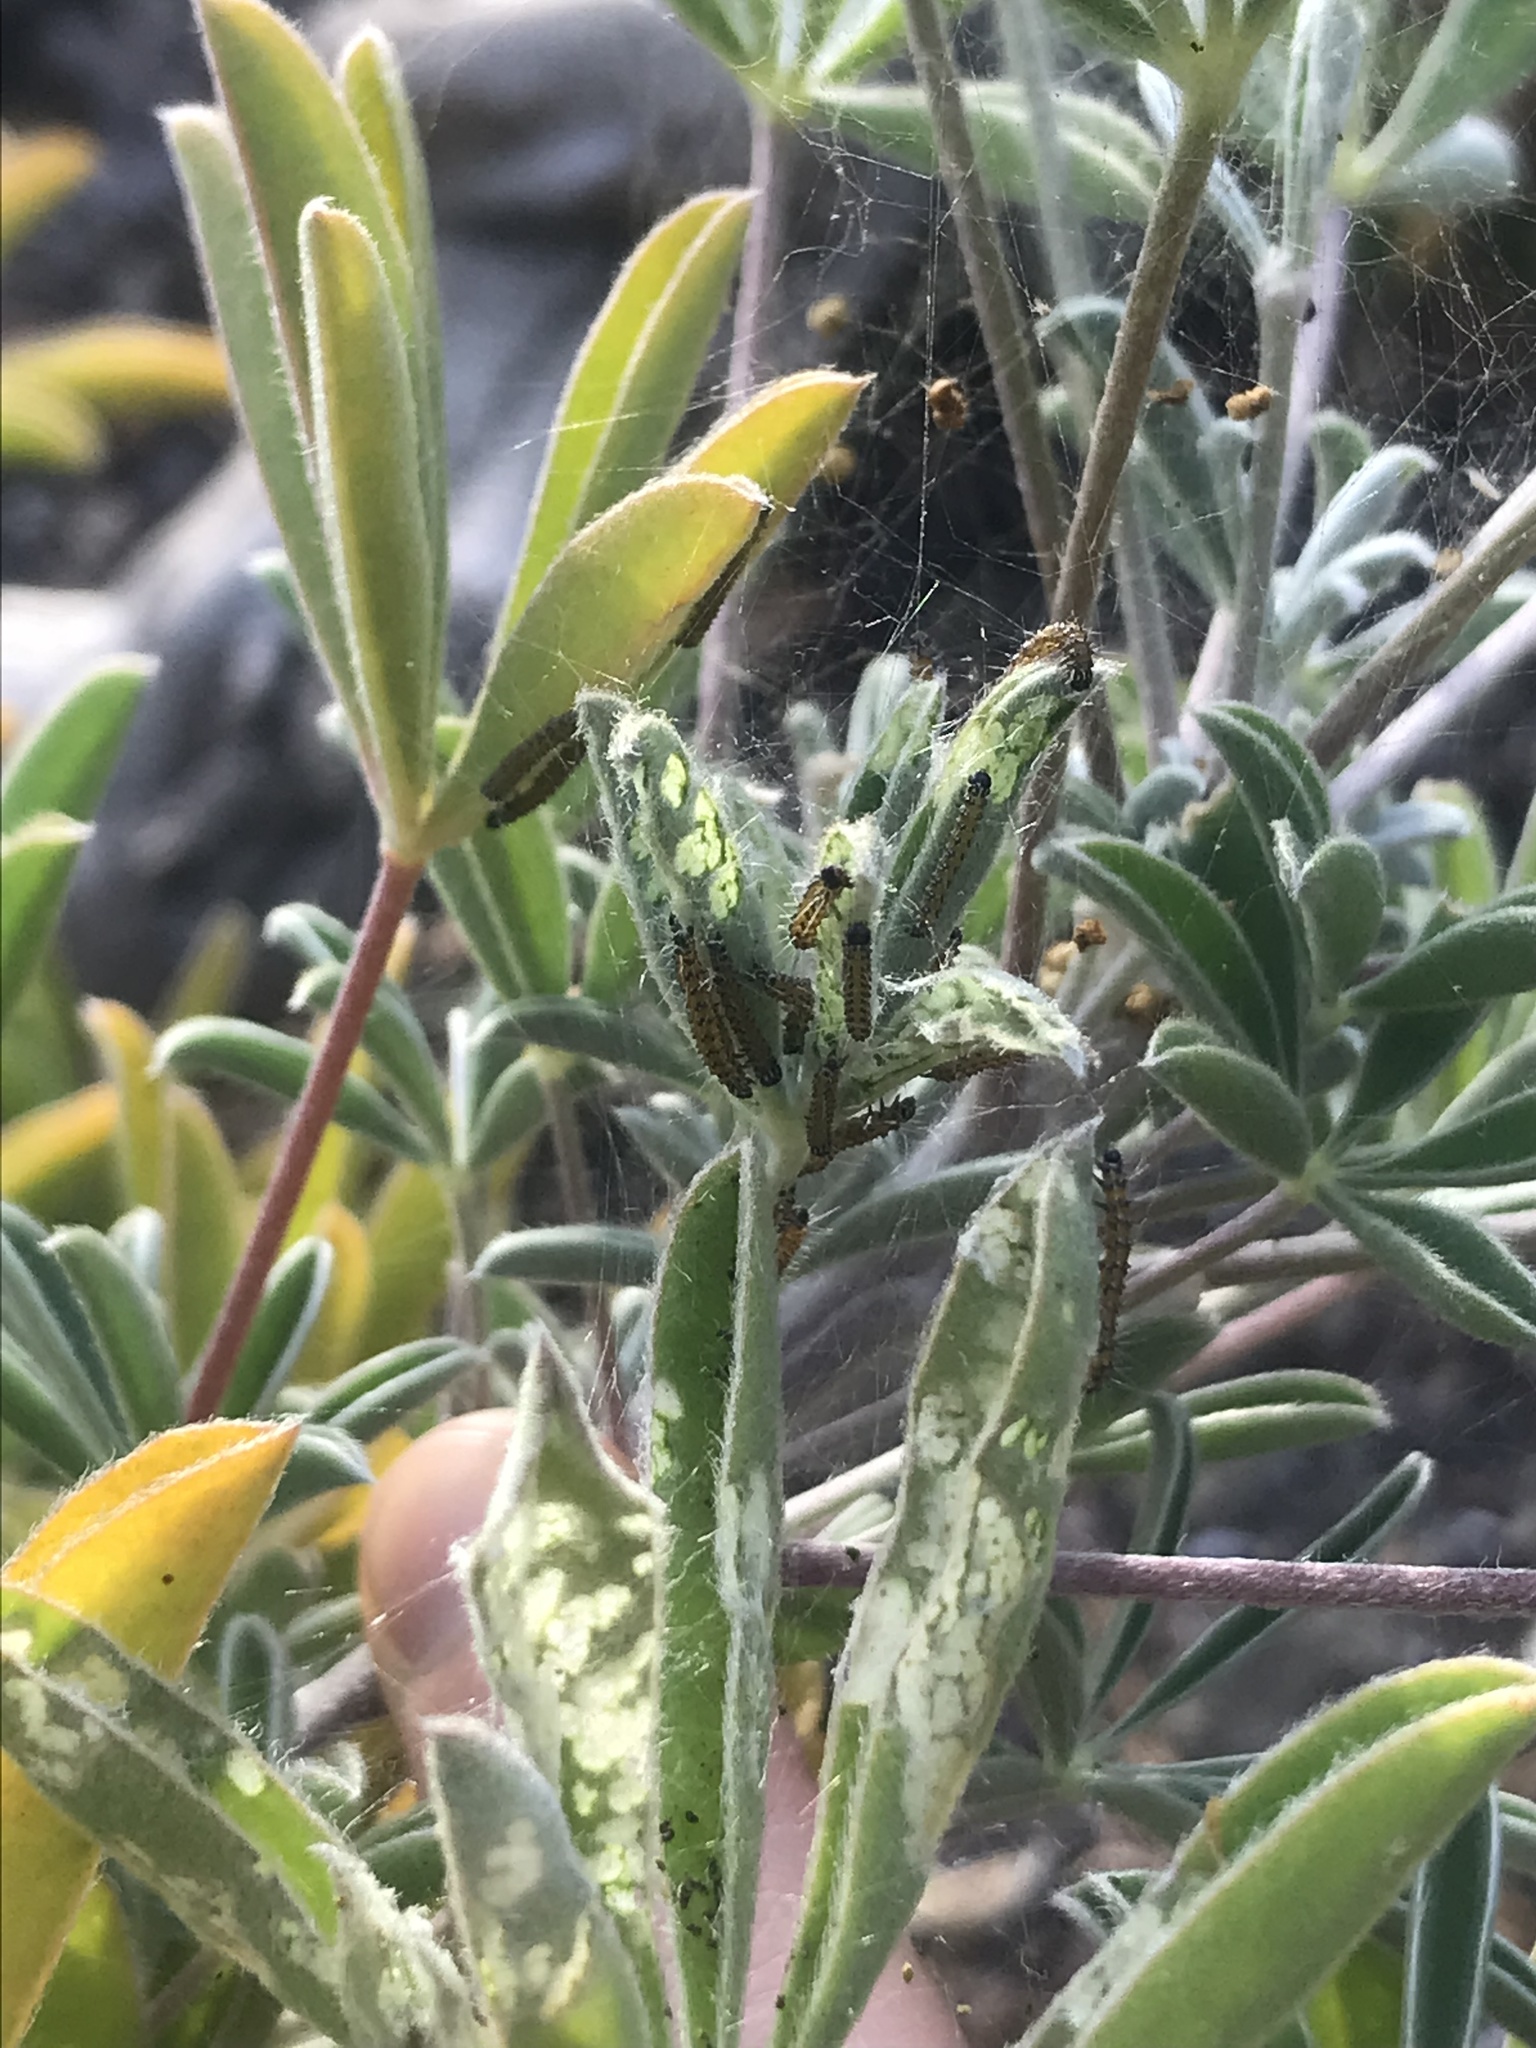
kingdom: Animalia
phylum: Arthropoda
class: Insecta
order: Lepidoptera
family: Crambidae
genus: Uresiphita
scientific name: Uresiphita reversalis
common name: Genista broom moth
